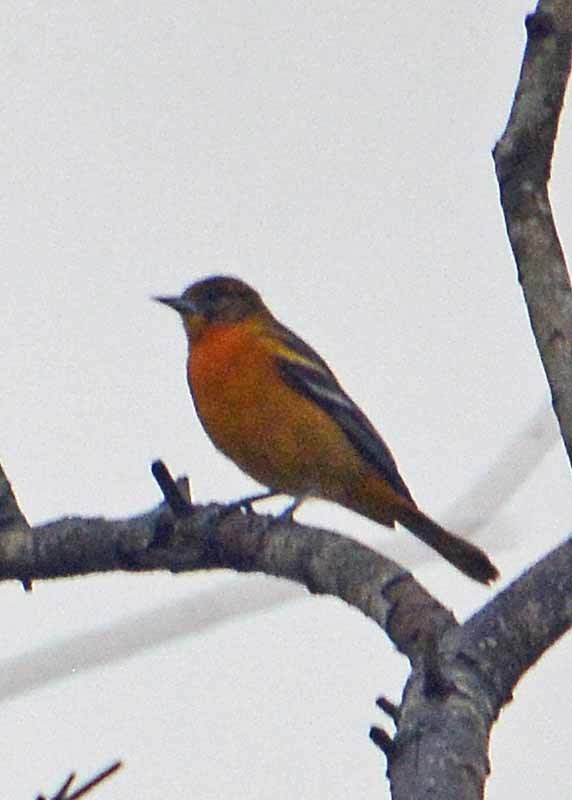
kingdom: Animalia
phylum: Chordata
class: Aves
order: Passeriformes
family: Icteridae
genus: Icterus
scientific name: Icterus galbula
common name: Baltimore oriole
